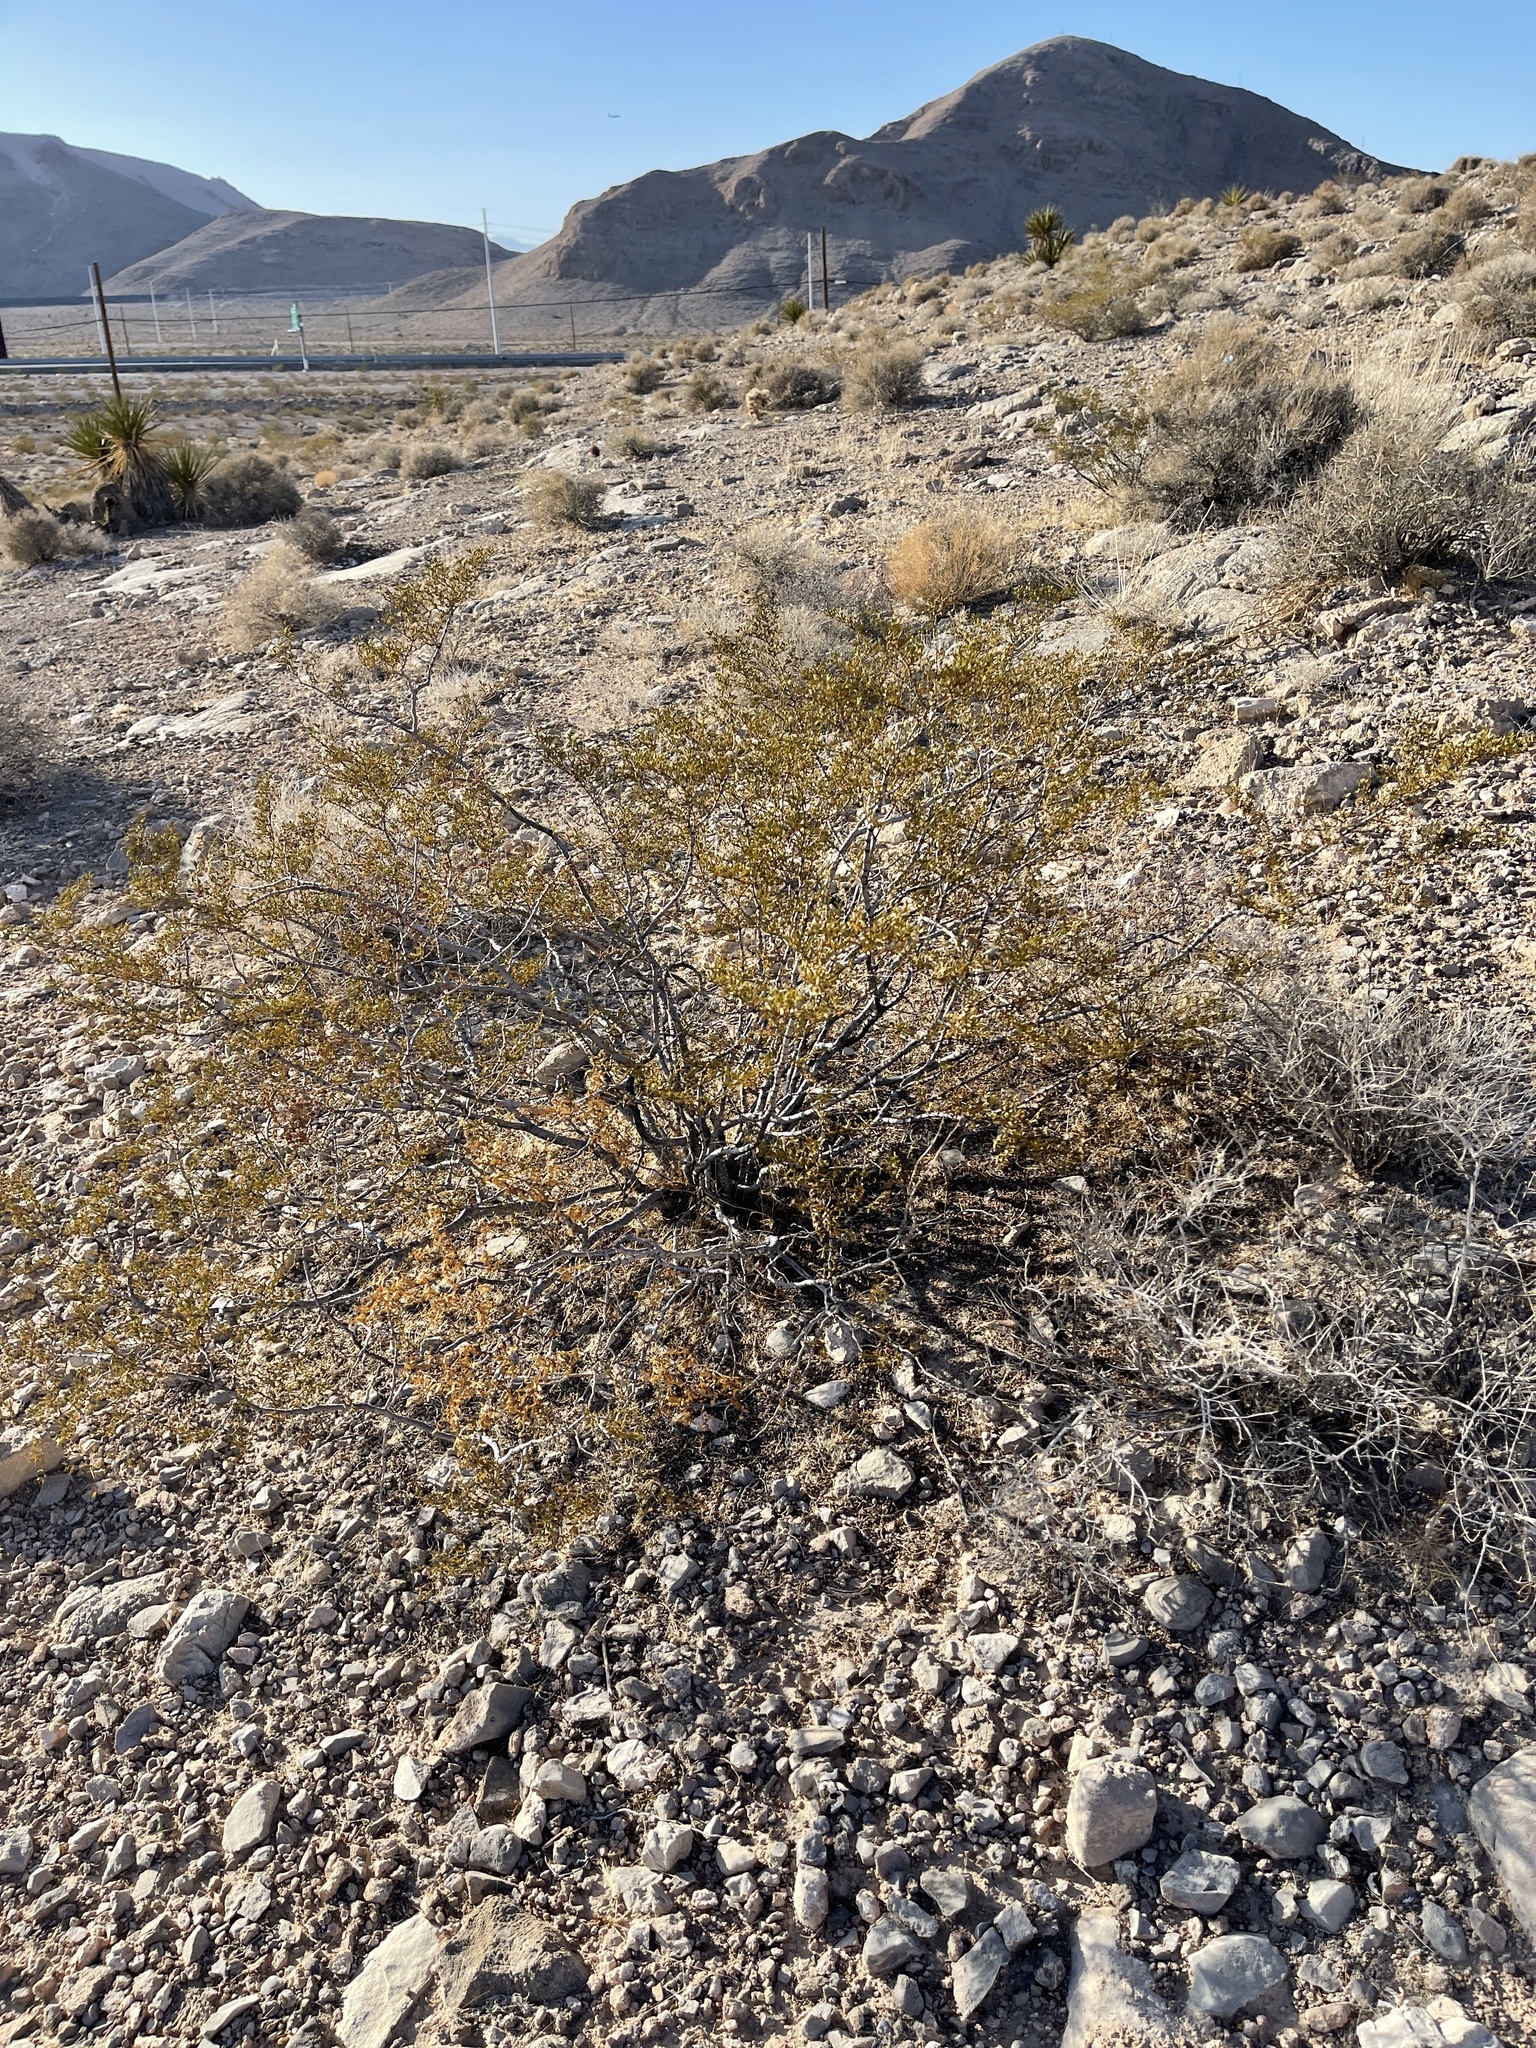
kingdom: Plantae
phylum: Tracheophyta
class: Magnoliopsida
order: Zygophyllales
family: Zygophyllaceae
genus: Larrea
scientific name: Larrea tridentata
